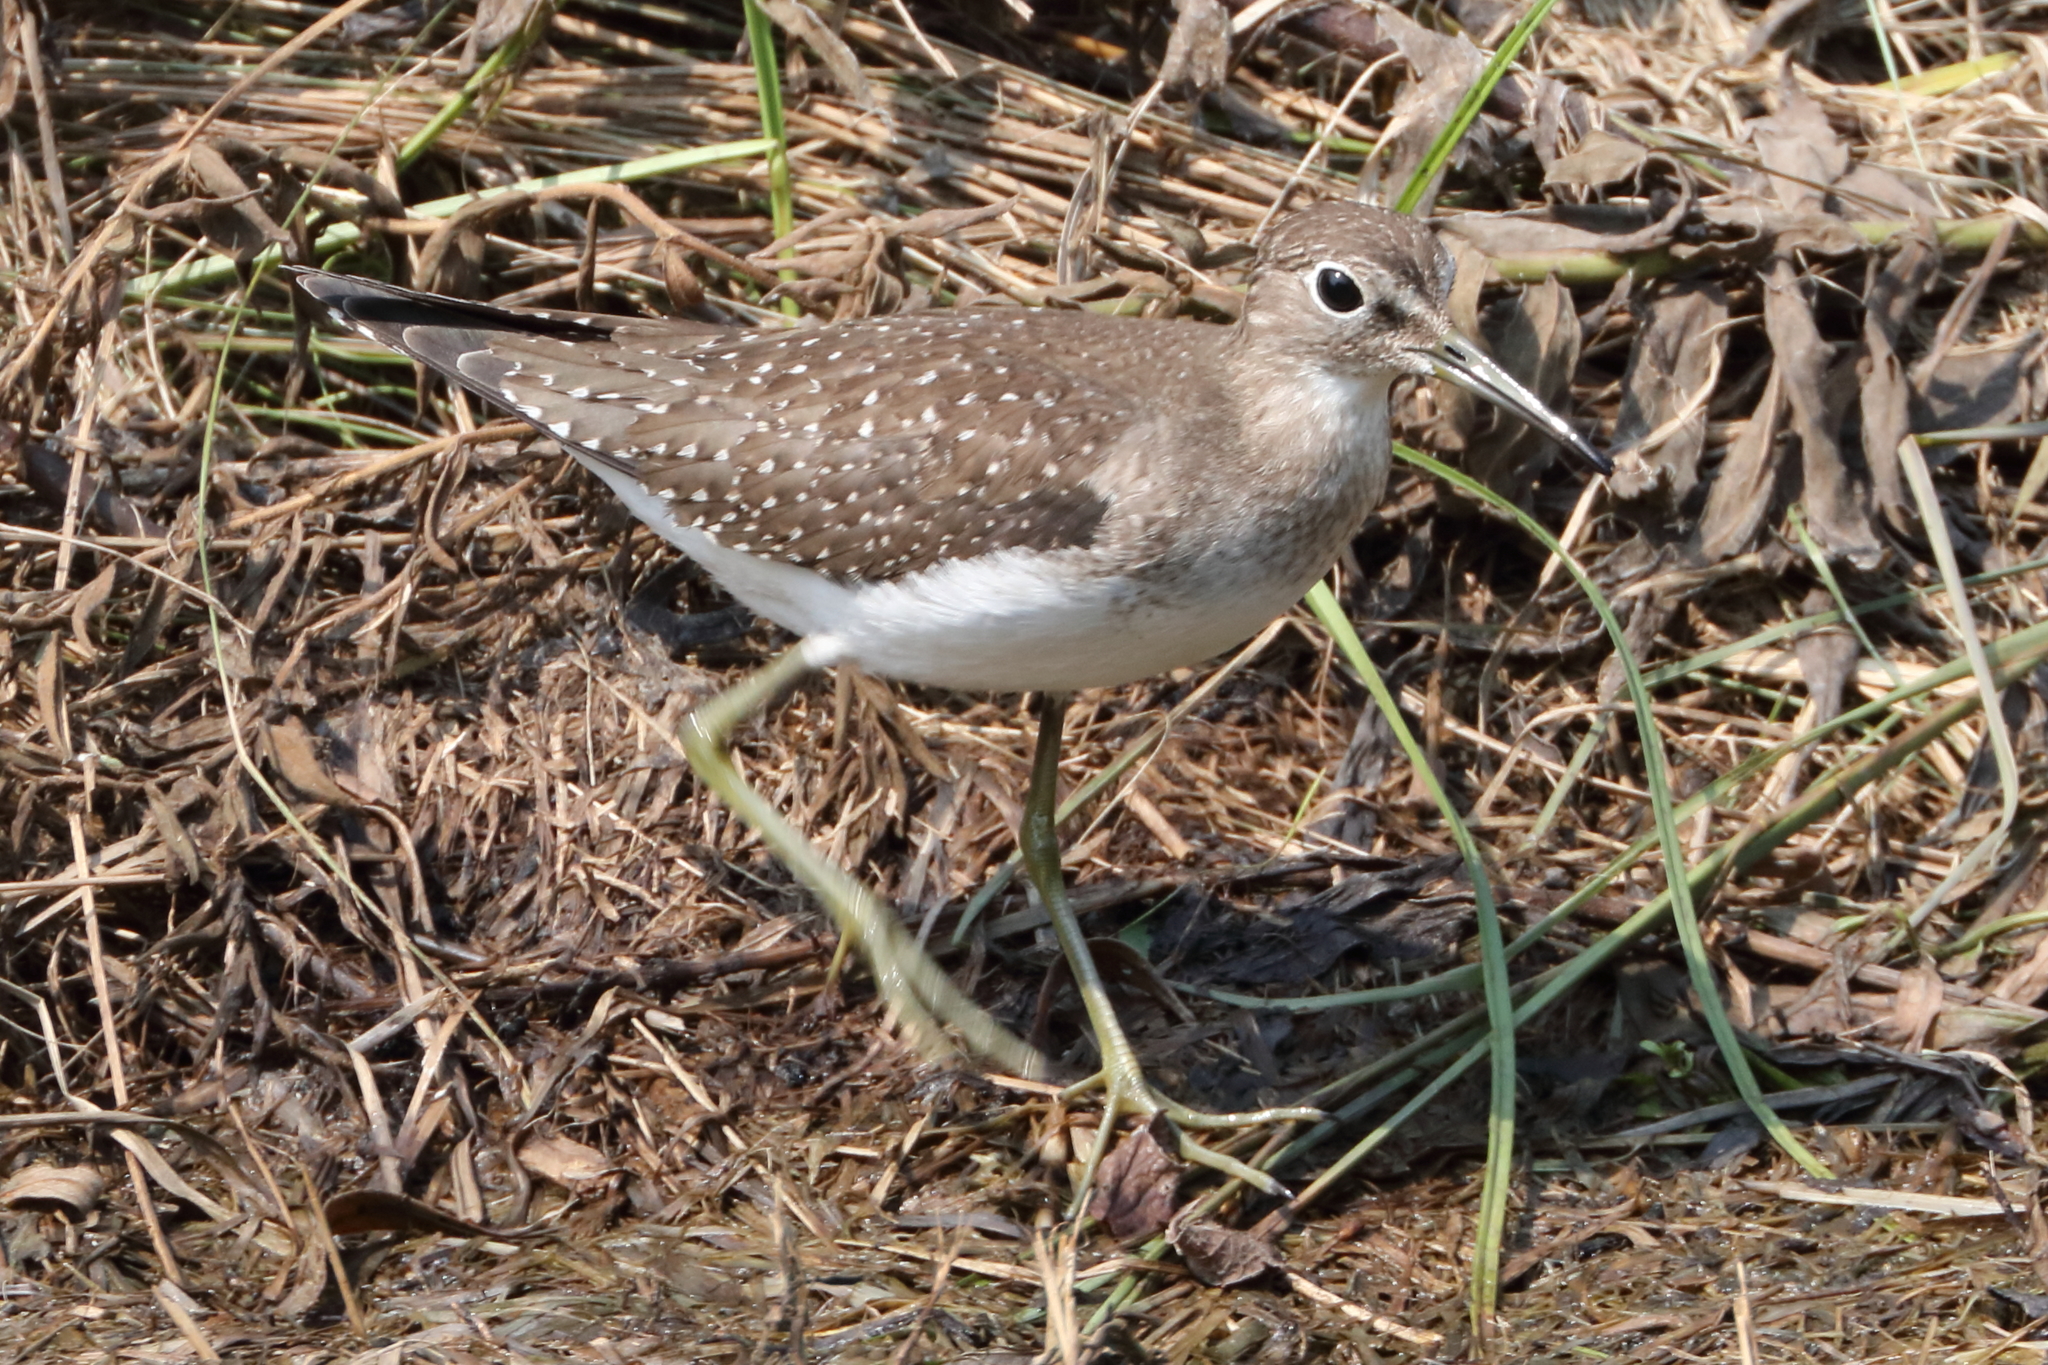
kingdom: Animalia
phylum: Chordata
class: Aves
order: Charadriiformes
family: Scolopacidae
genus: Tringa
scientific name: Tringa solitaria
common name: Solitary sandpiper
